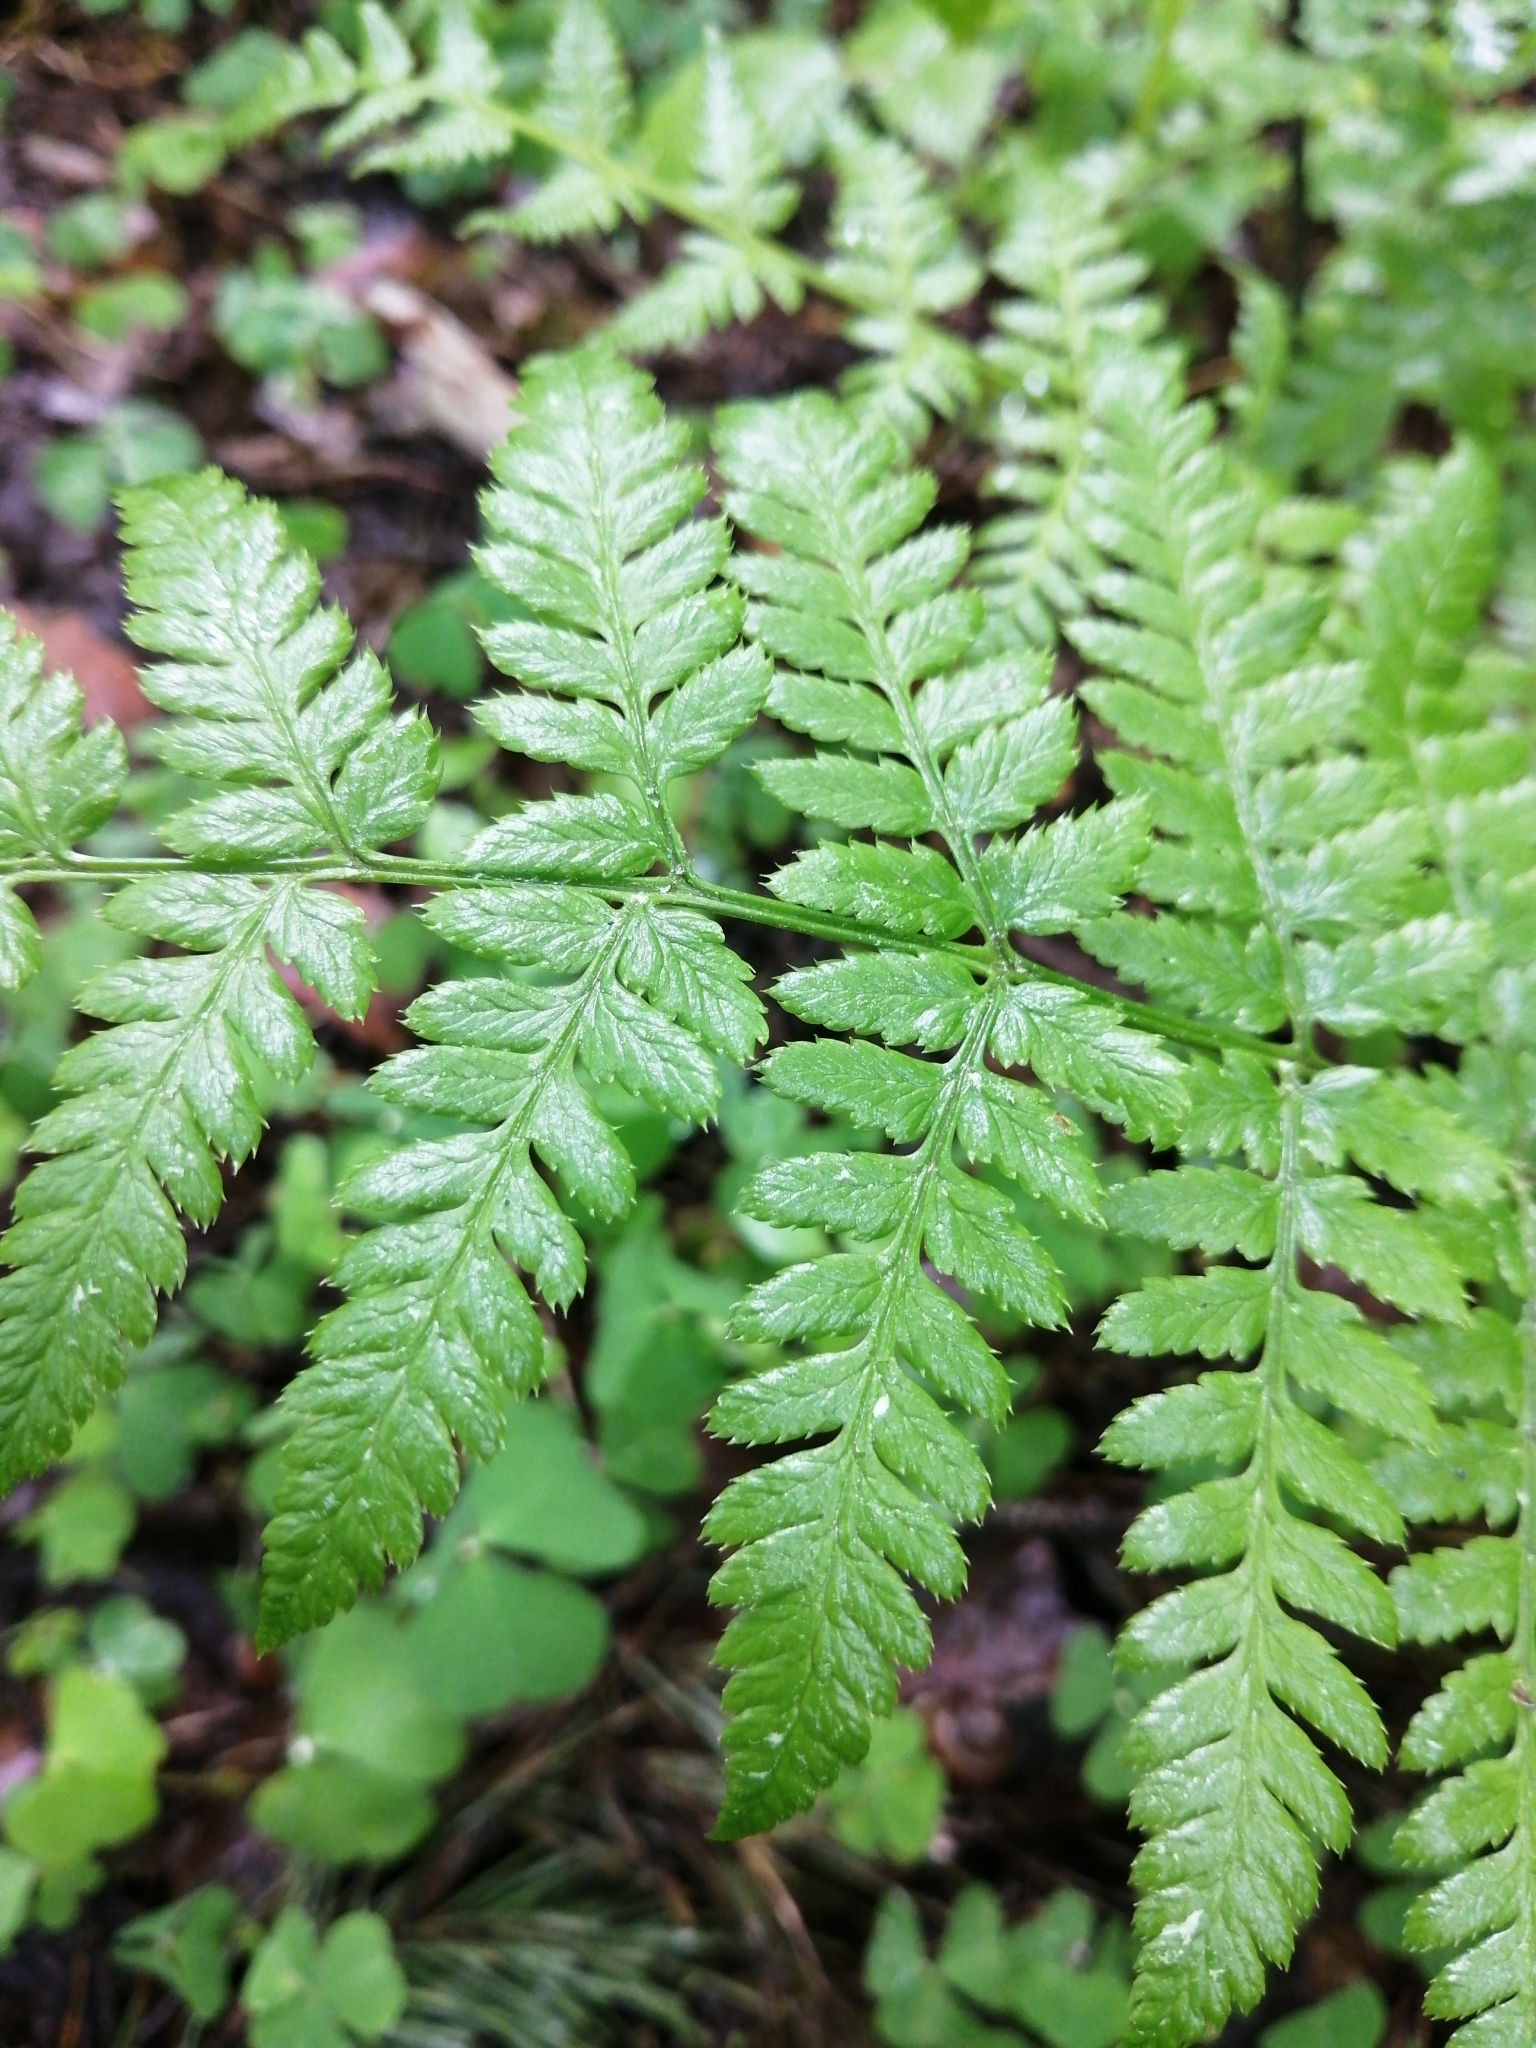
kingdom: Plantae
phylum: Tracheophyta
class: Polypodiopsida
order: Polypodiales
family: Dryopteridaceae
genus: Dryopteris
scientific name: Dryopteris carthusiana
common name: Narrow buckler-fern
